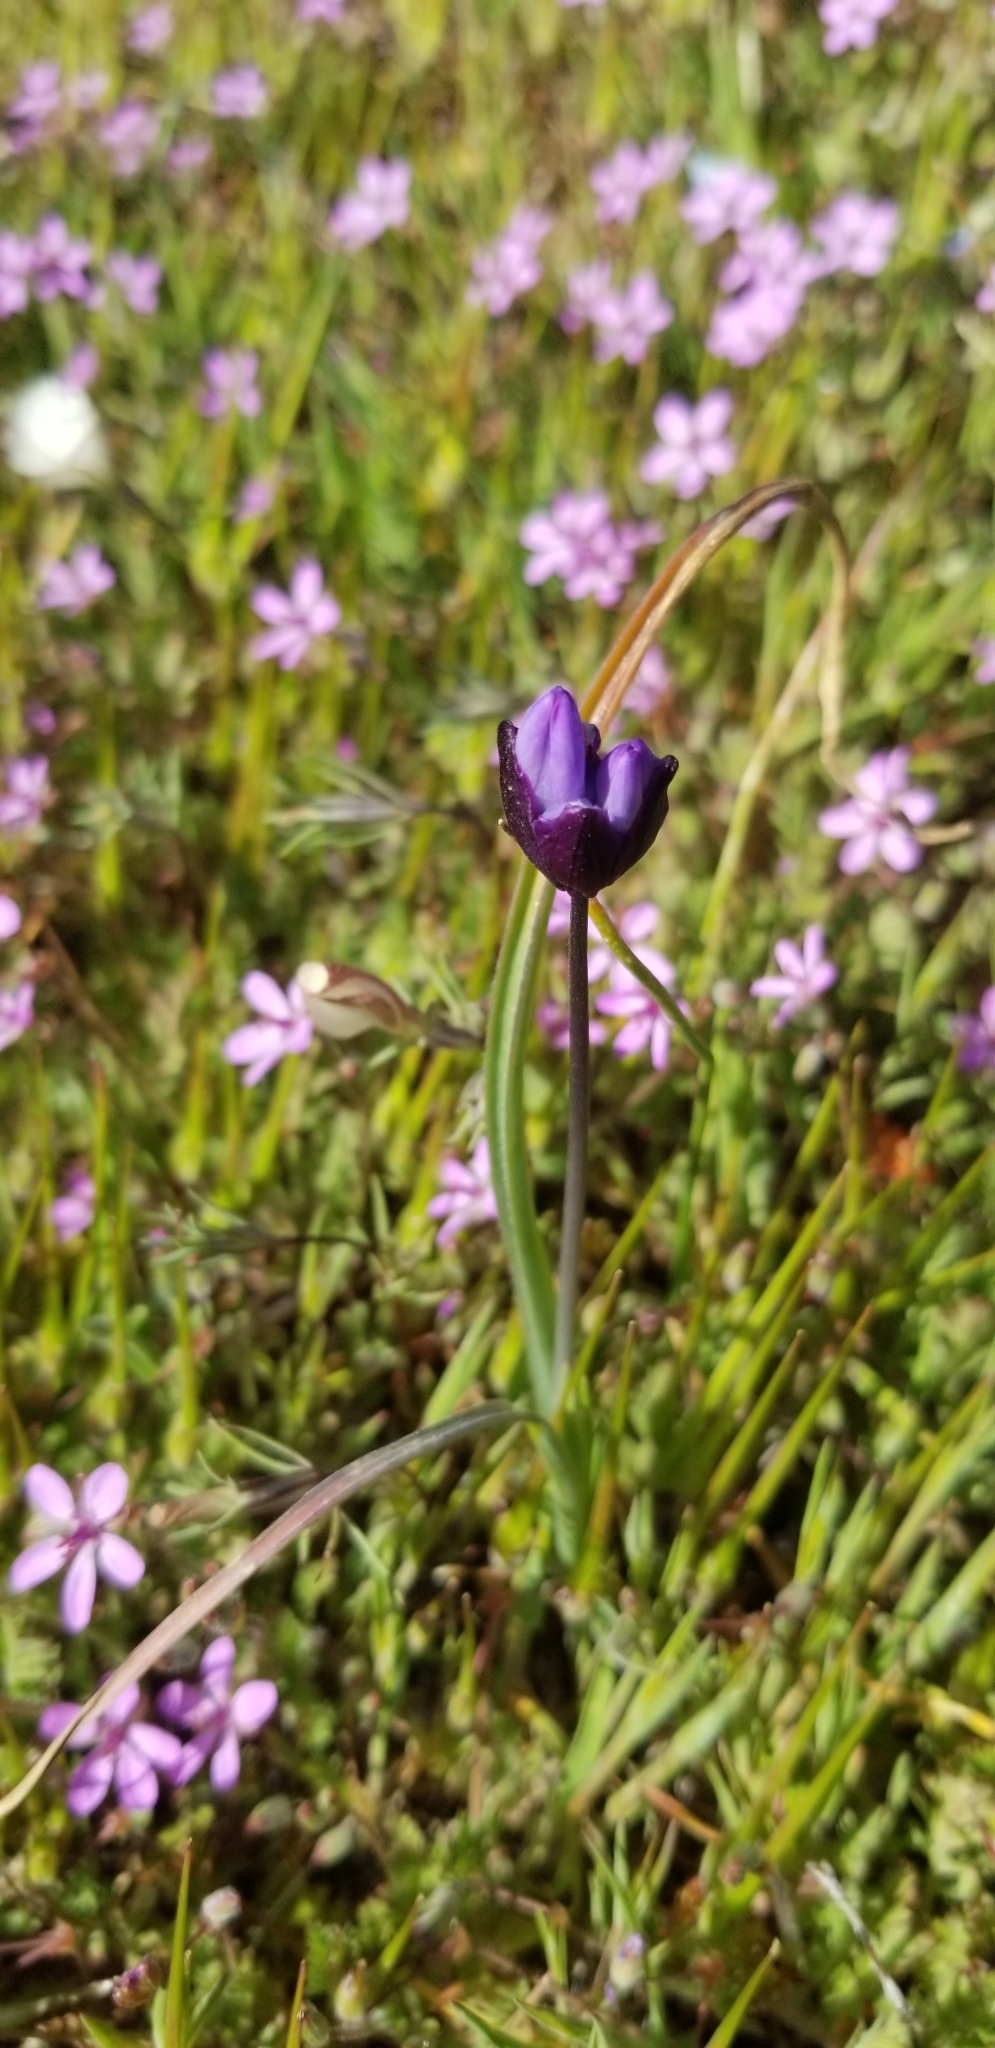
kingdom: Plantae
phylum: Tracheophyta
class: Liliopsida
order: Asparagales
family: Asparagaceae
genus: Dipterostemon
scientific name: Dipterostemon capitatus
